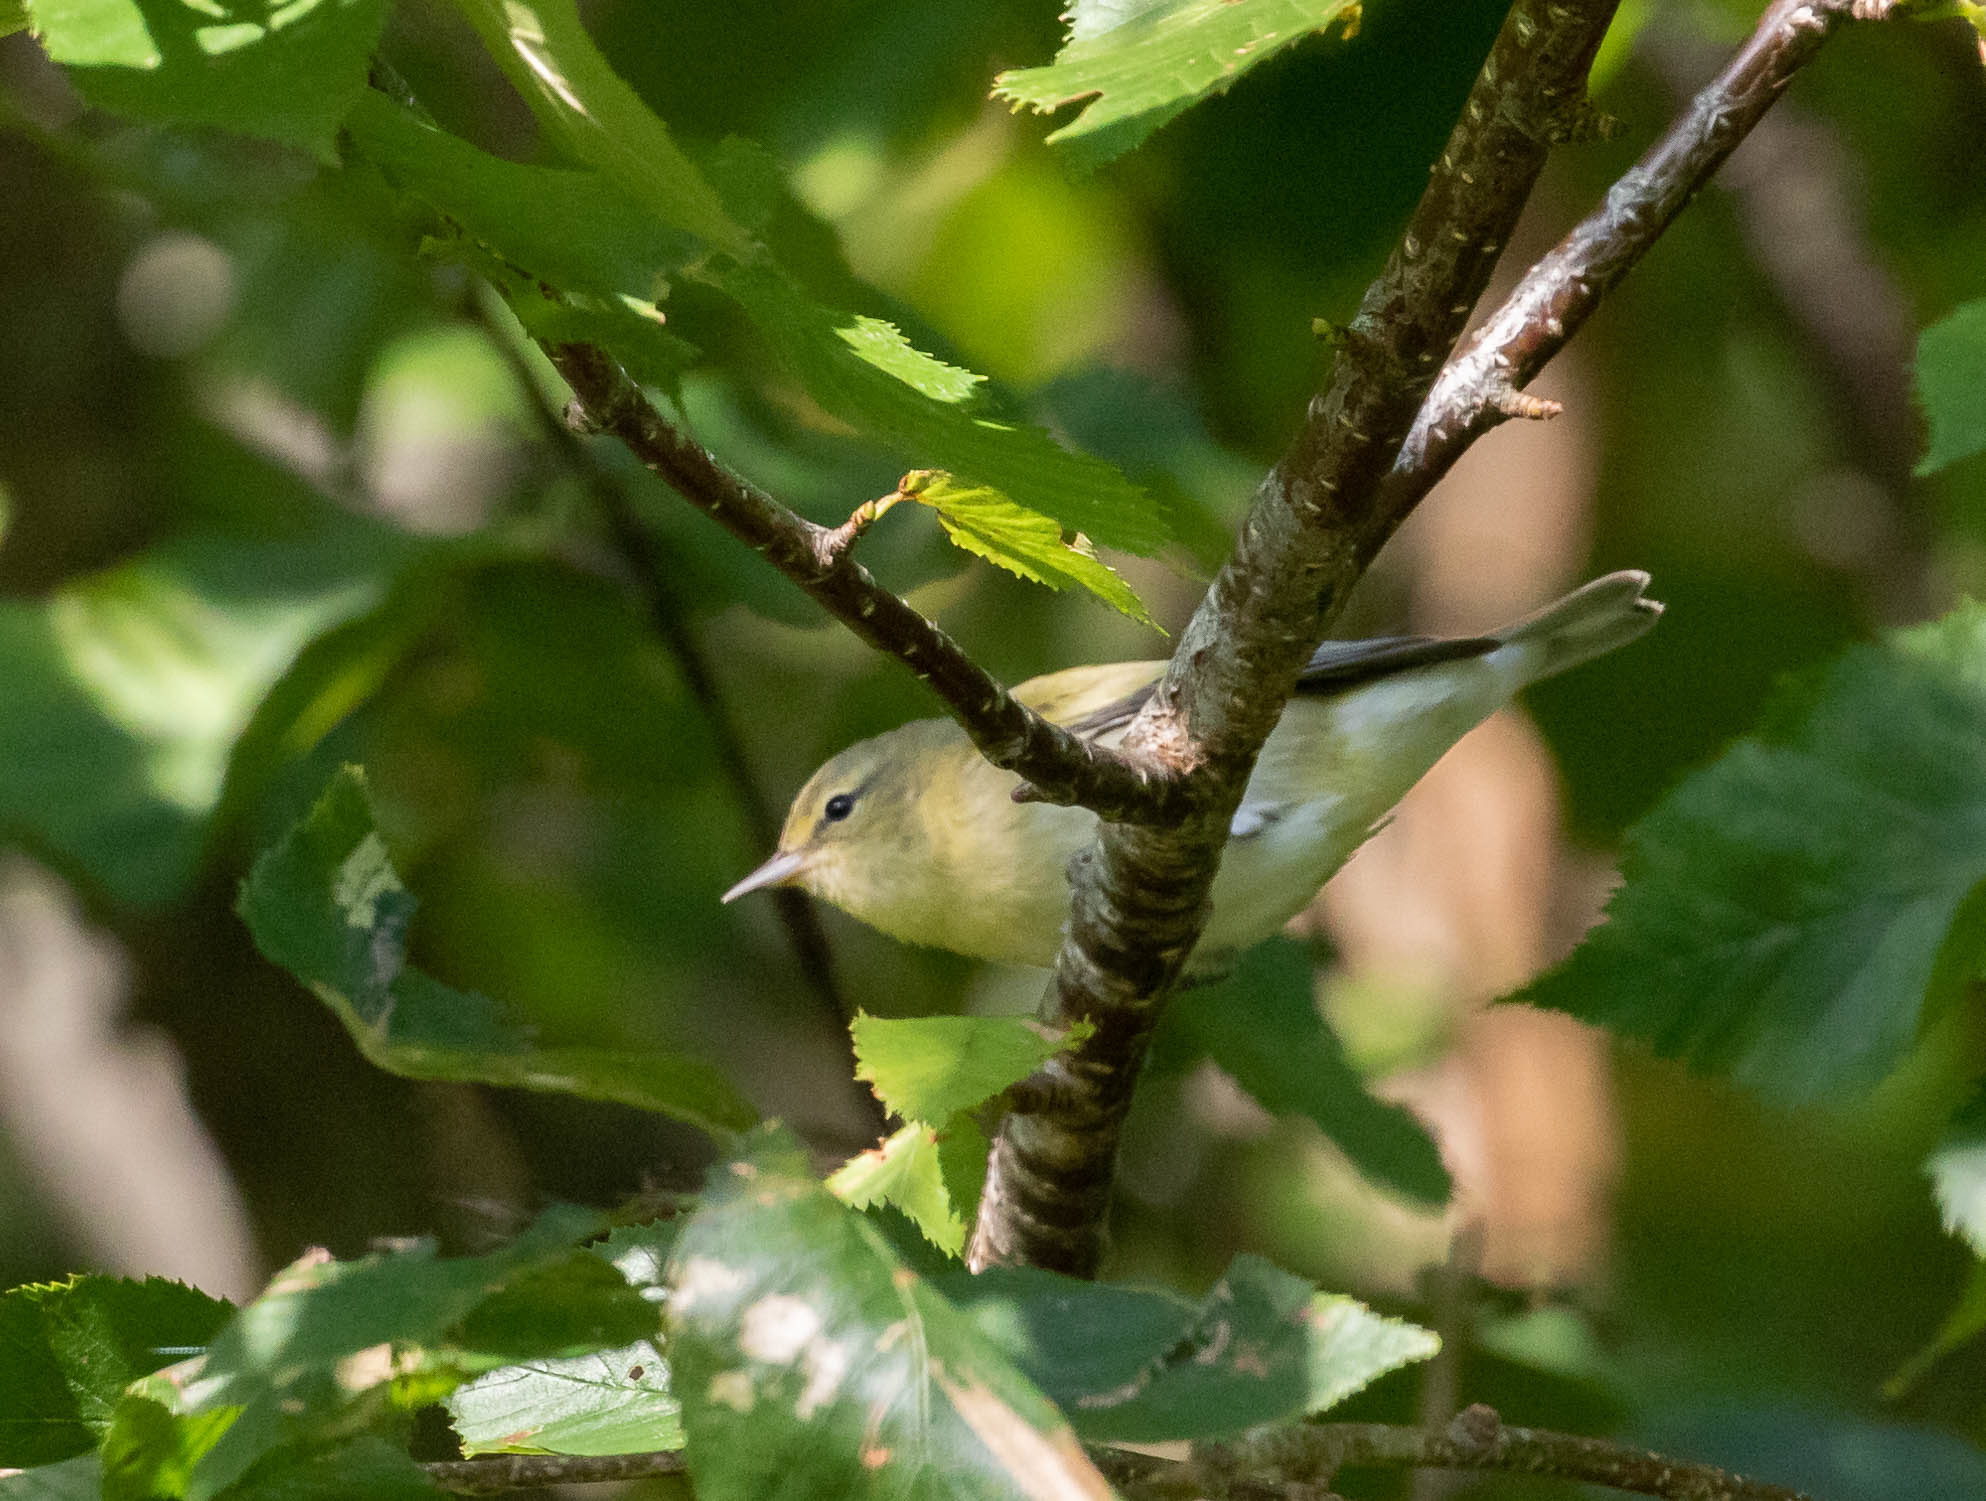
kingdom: Animalia
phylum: Chordata
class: Aves
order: Passeriformes
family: Parulidae
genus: Leiothlypis
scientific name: Leiothlypis peregrina
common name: Tennessee warbler
